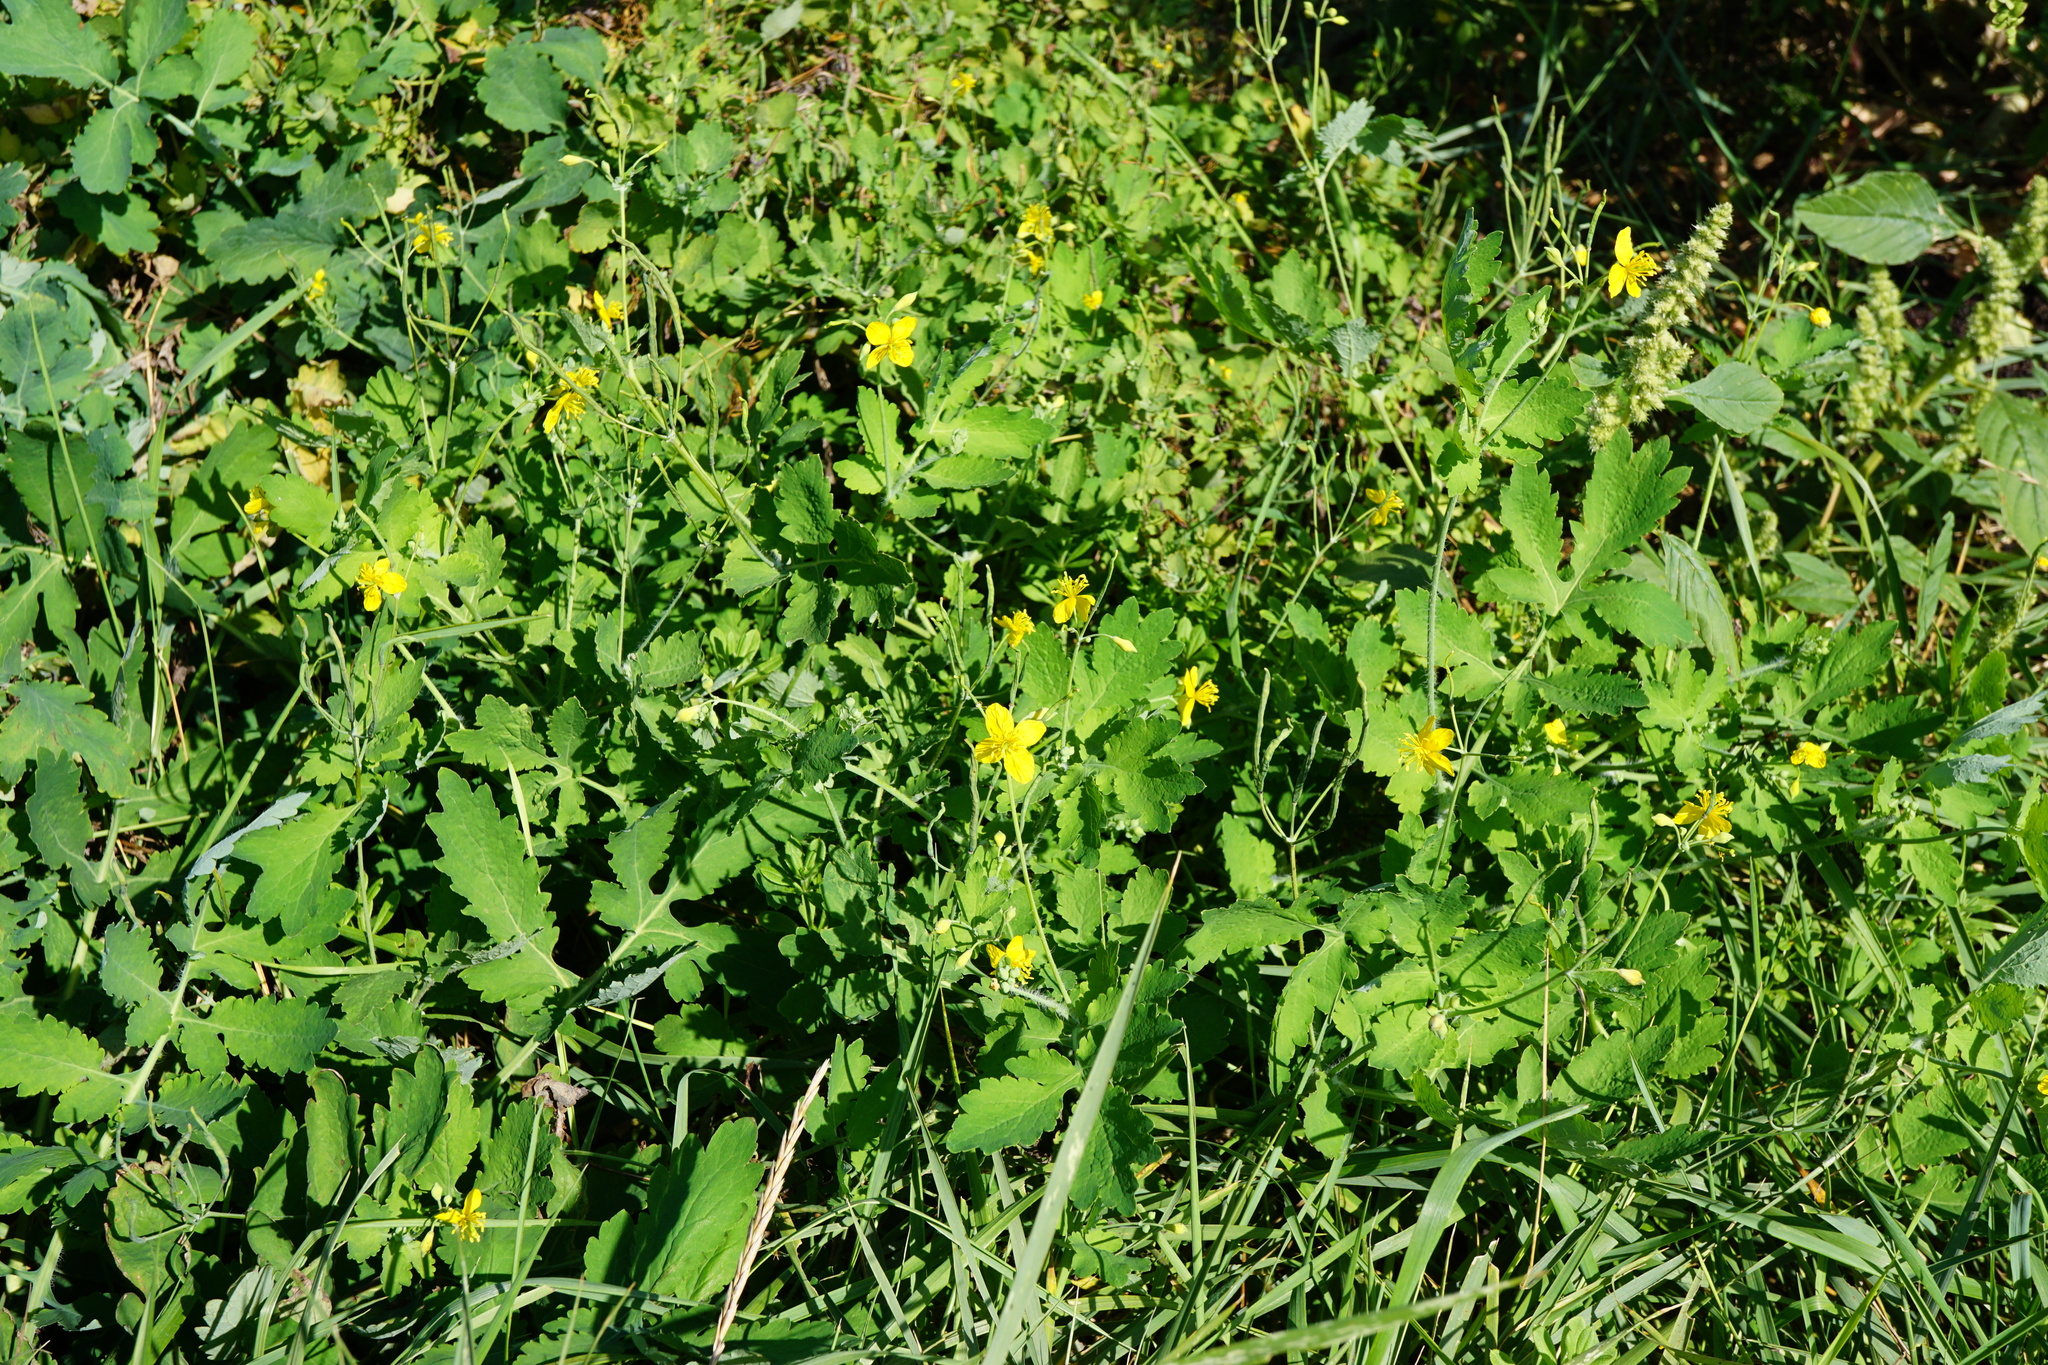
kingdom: Plantae
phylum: Tracheophyta
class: Magnoliopsida
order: Ranunculales
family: Papaveraceae
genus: Chelidonium
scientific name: Chelidonium majus
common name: Greater celandine
